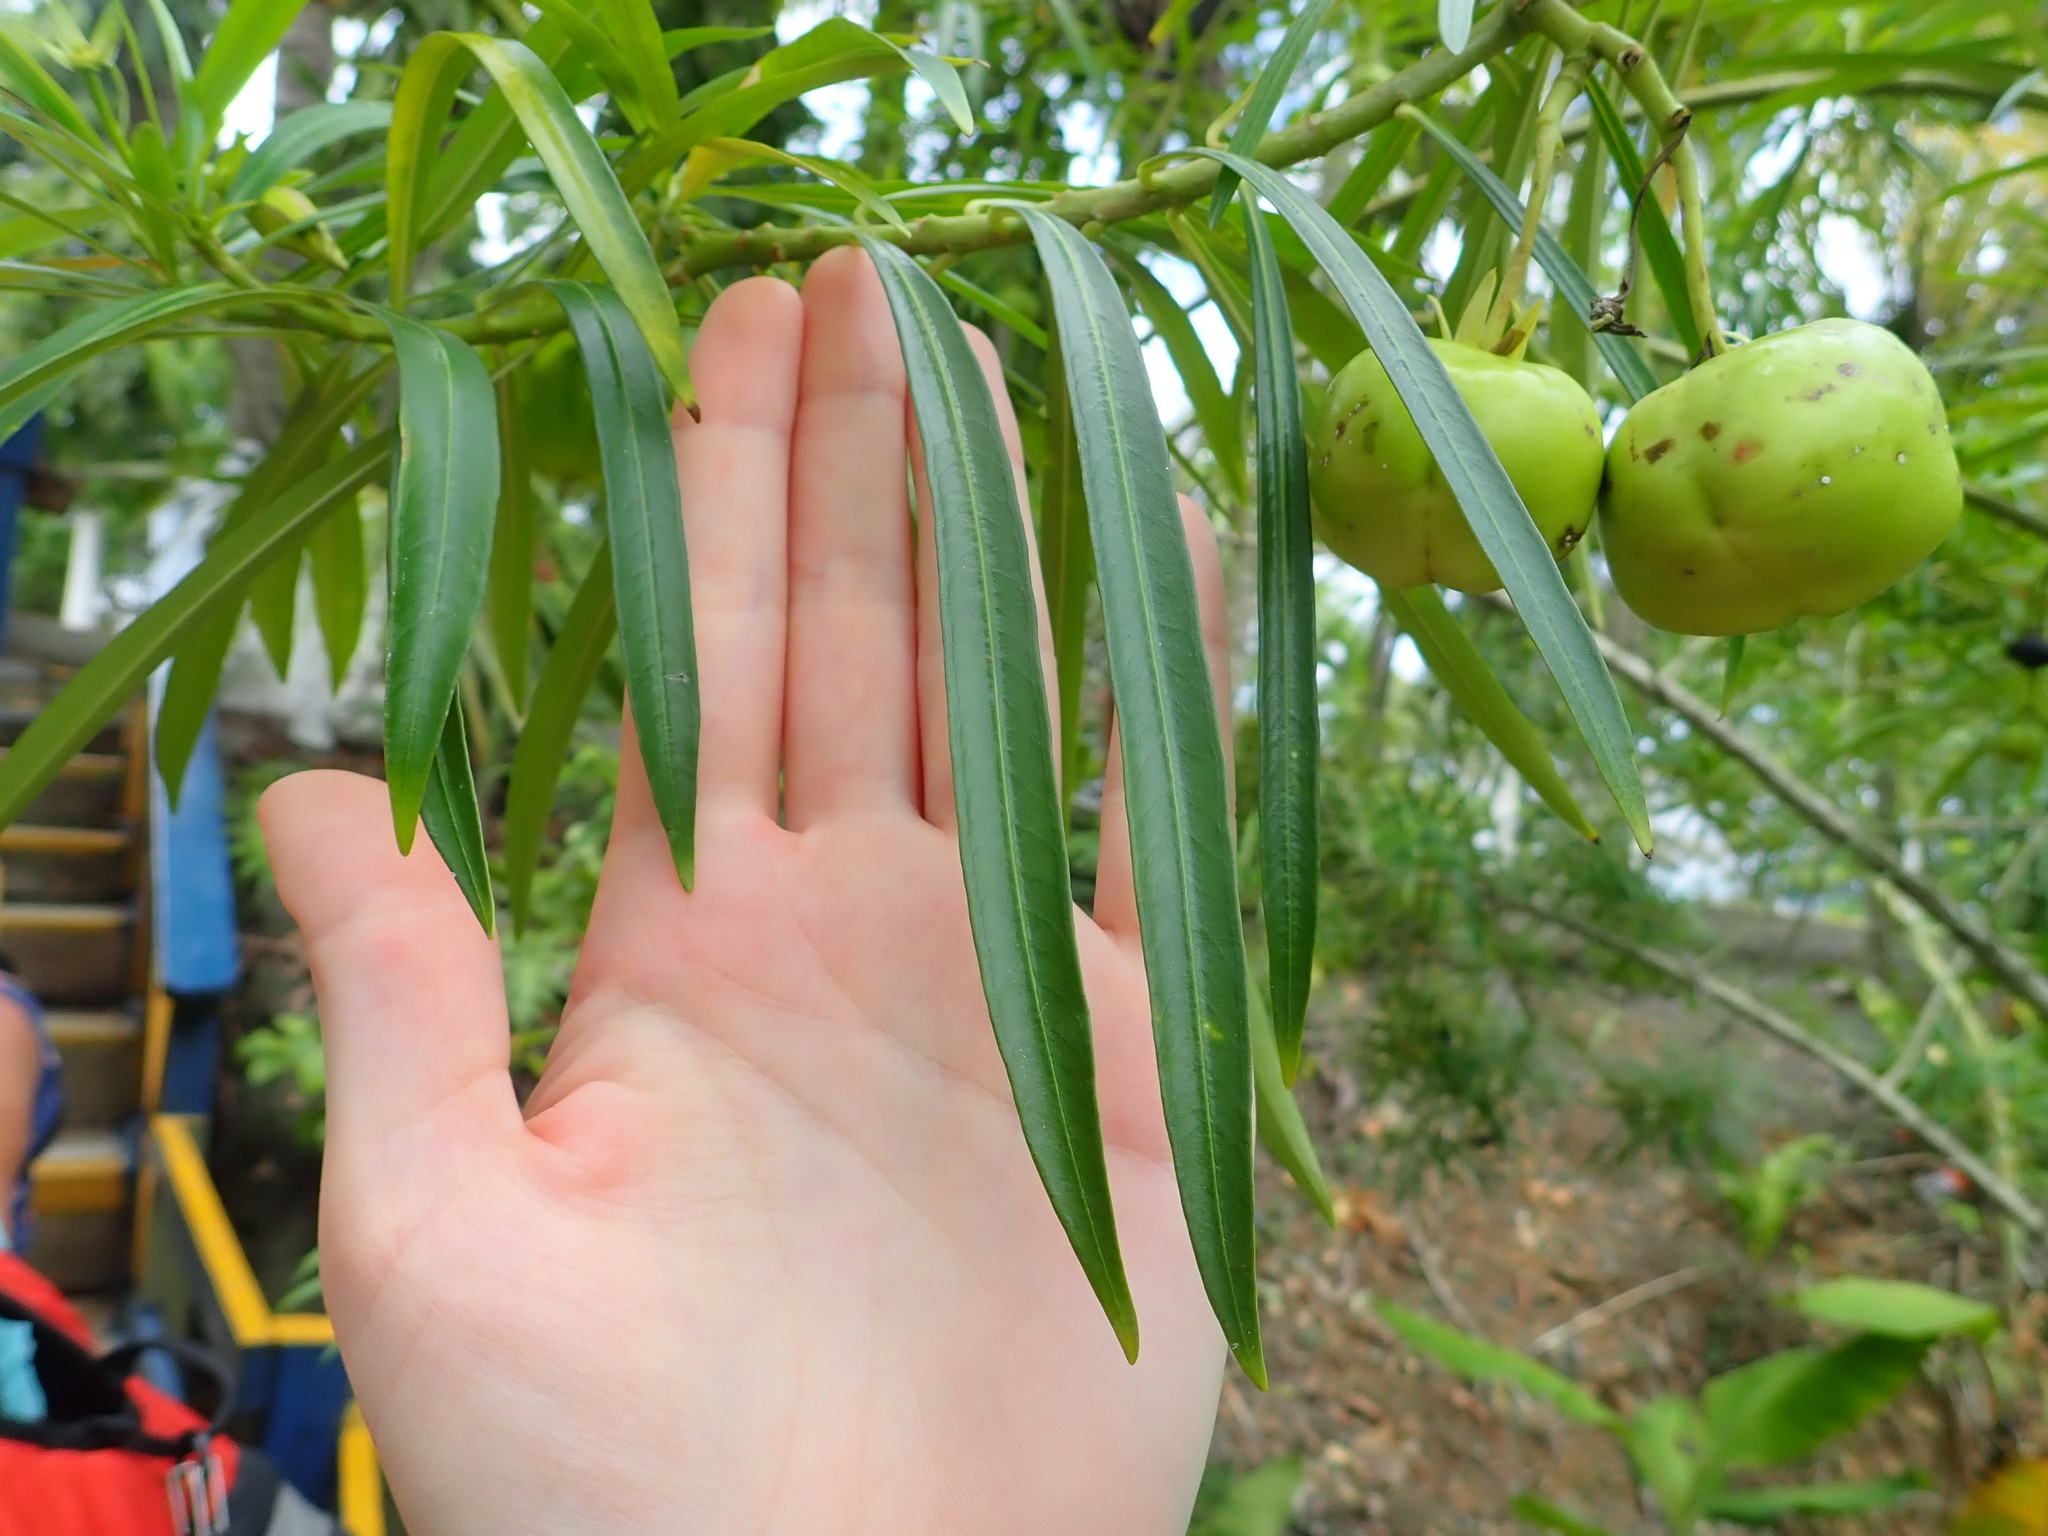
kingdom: Plantae
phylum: Tracheophyta
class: Magnoliopsida
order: Gentianales
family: Apocynaceae
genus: Cascabela
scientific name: Cascabela thevetia
